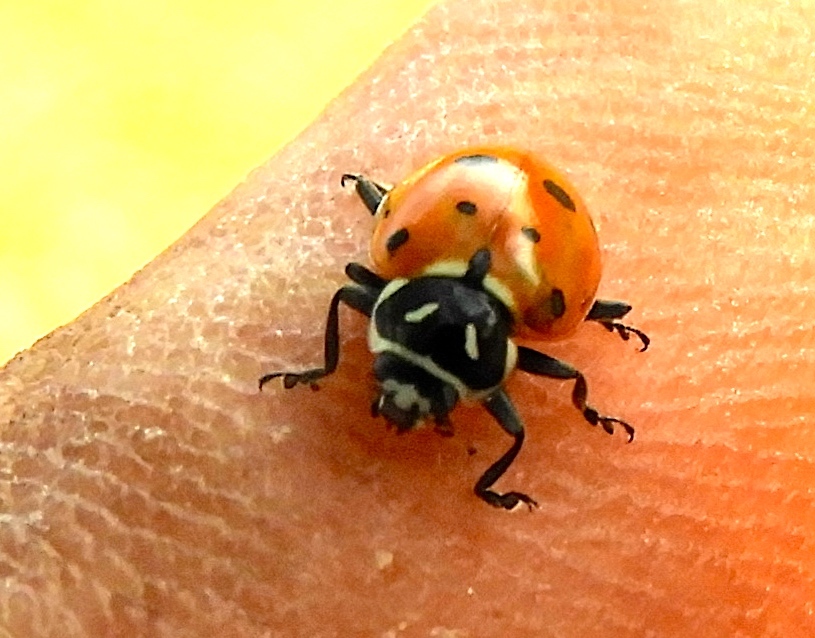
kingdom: Animalia
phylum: Arthropoda
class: Insecta
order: Coleoptera
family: Coccinellidae
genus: Hippodamia
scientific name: Hippodamia convergens
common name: Convergent lady beetle
